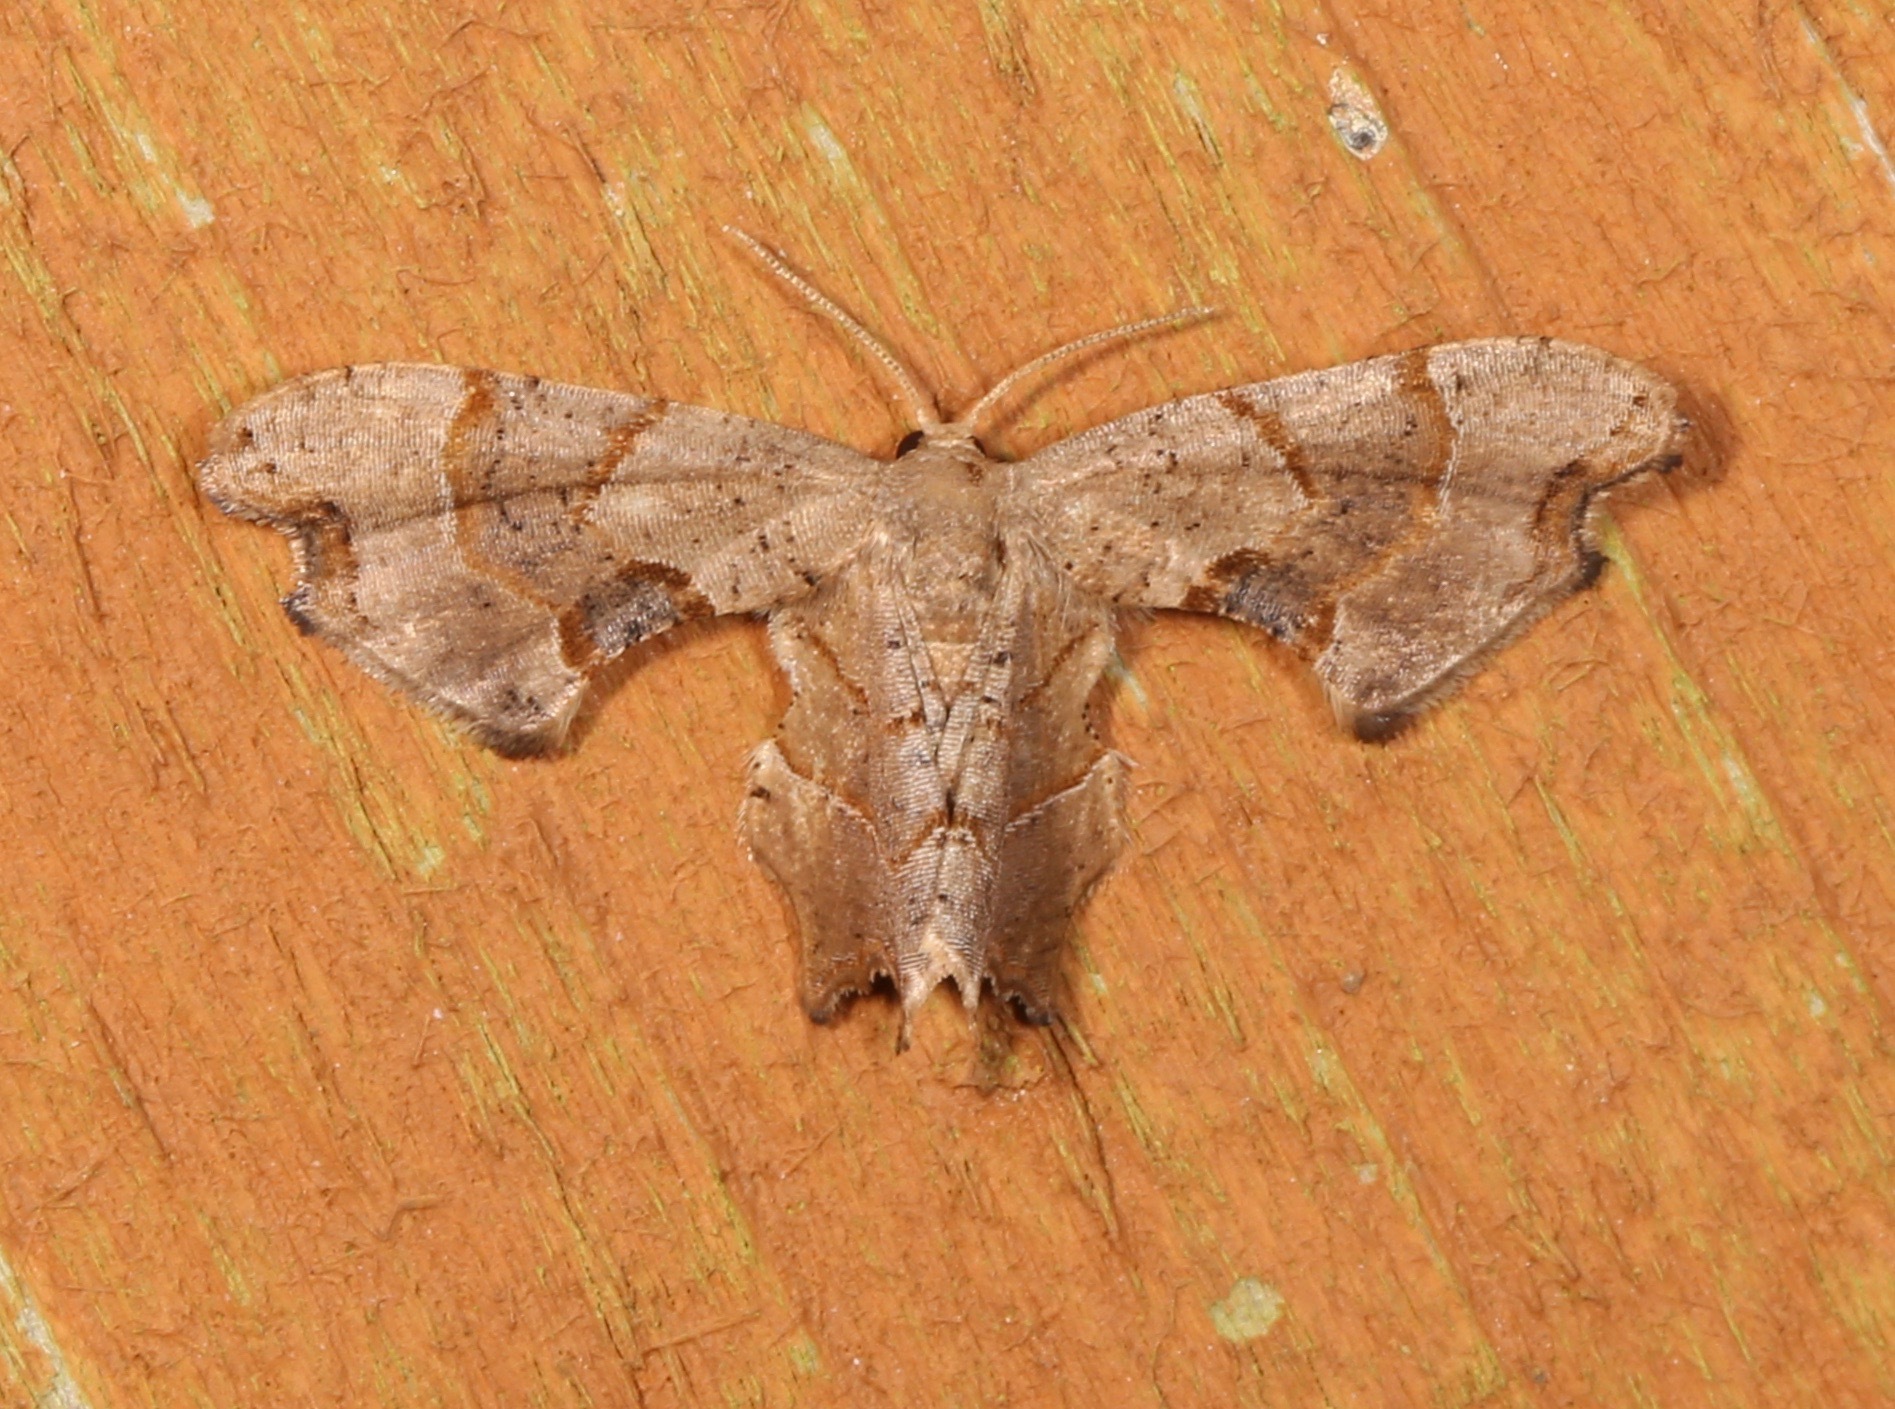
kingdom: Animalia
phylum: Arthropoda
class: Insecta
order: Lepidoptera
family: Uraniidae
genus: Epiplema
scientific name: Epiplema Calledapteryx dryopterata
